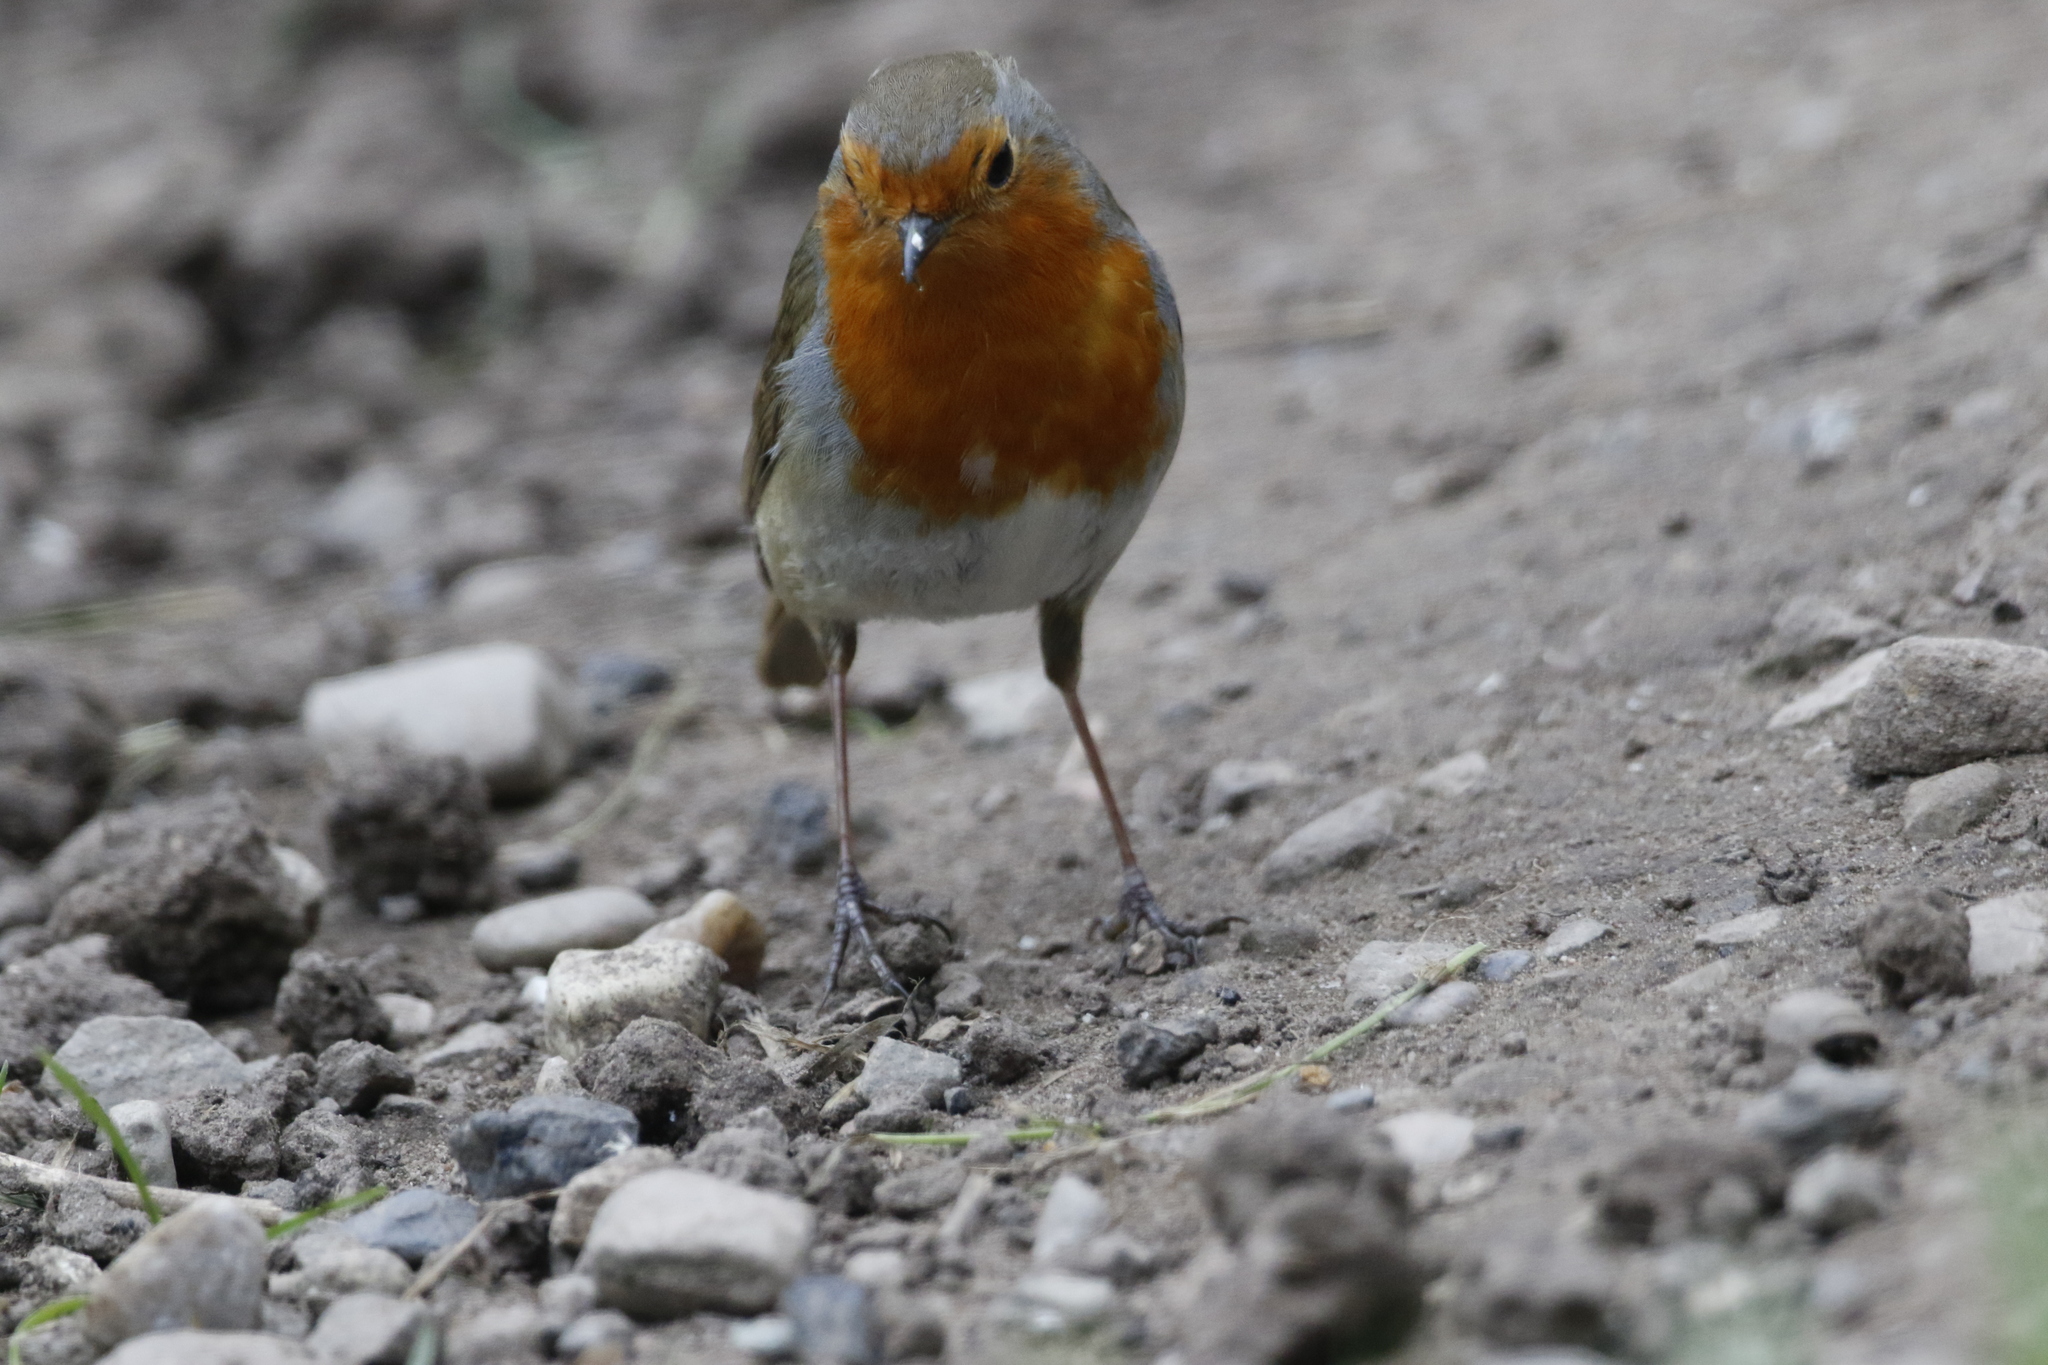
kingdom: Animalia
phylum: Chordata
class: Aves
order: Passeriformes
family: Muscicapidae
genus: Erithacus
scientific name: Erithacus rubecula
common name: European robin
